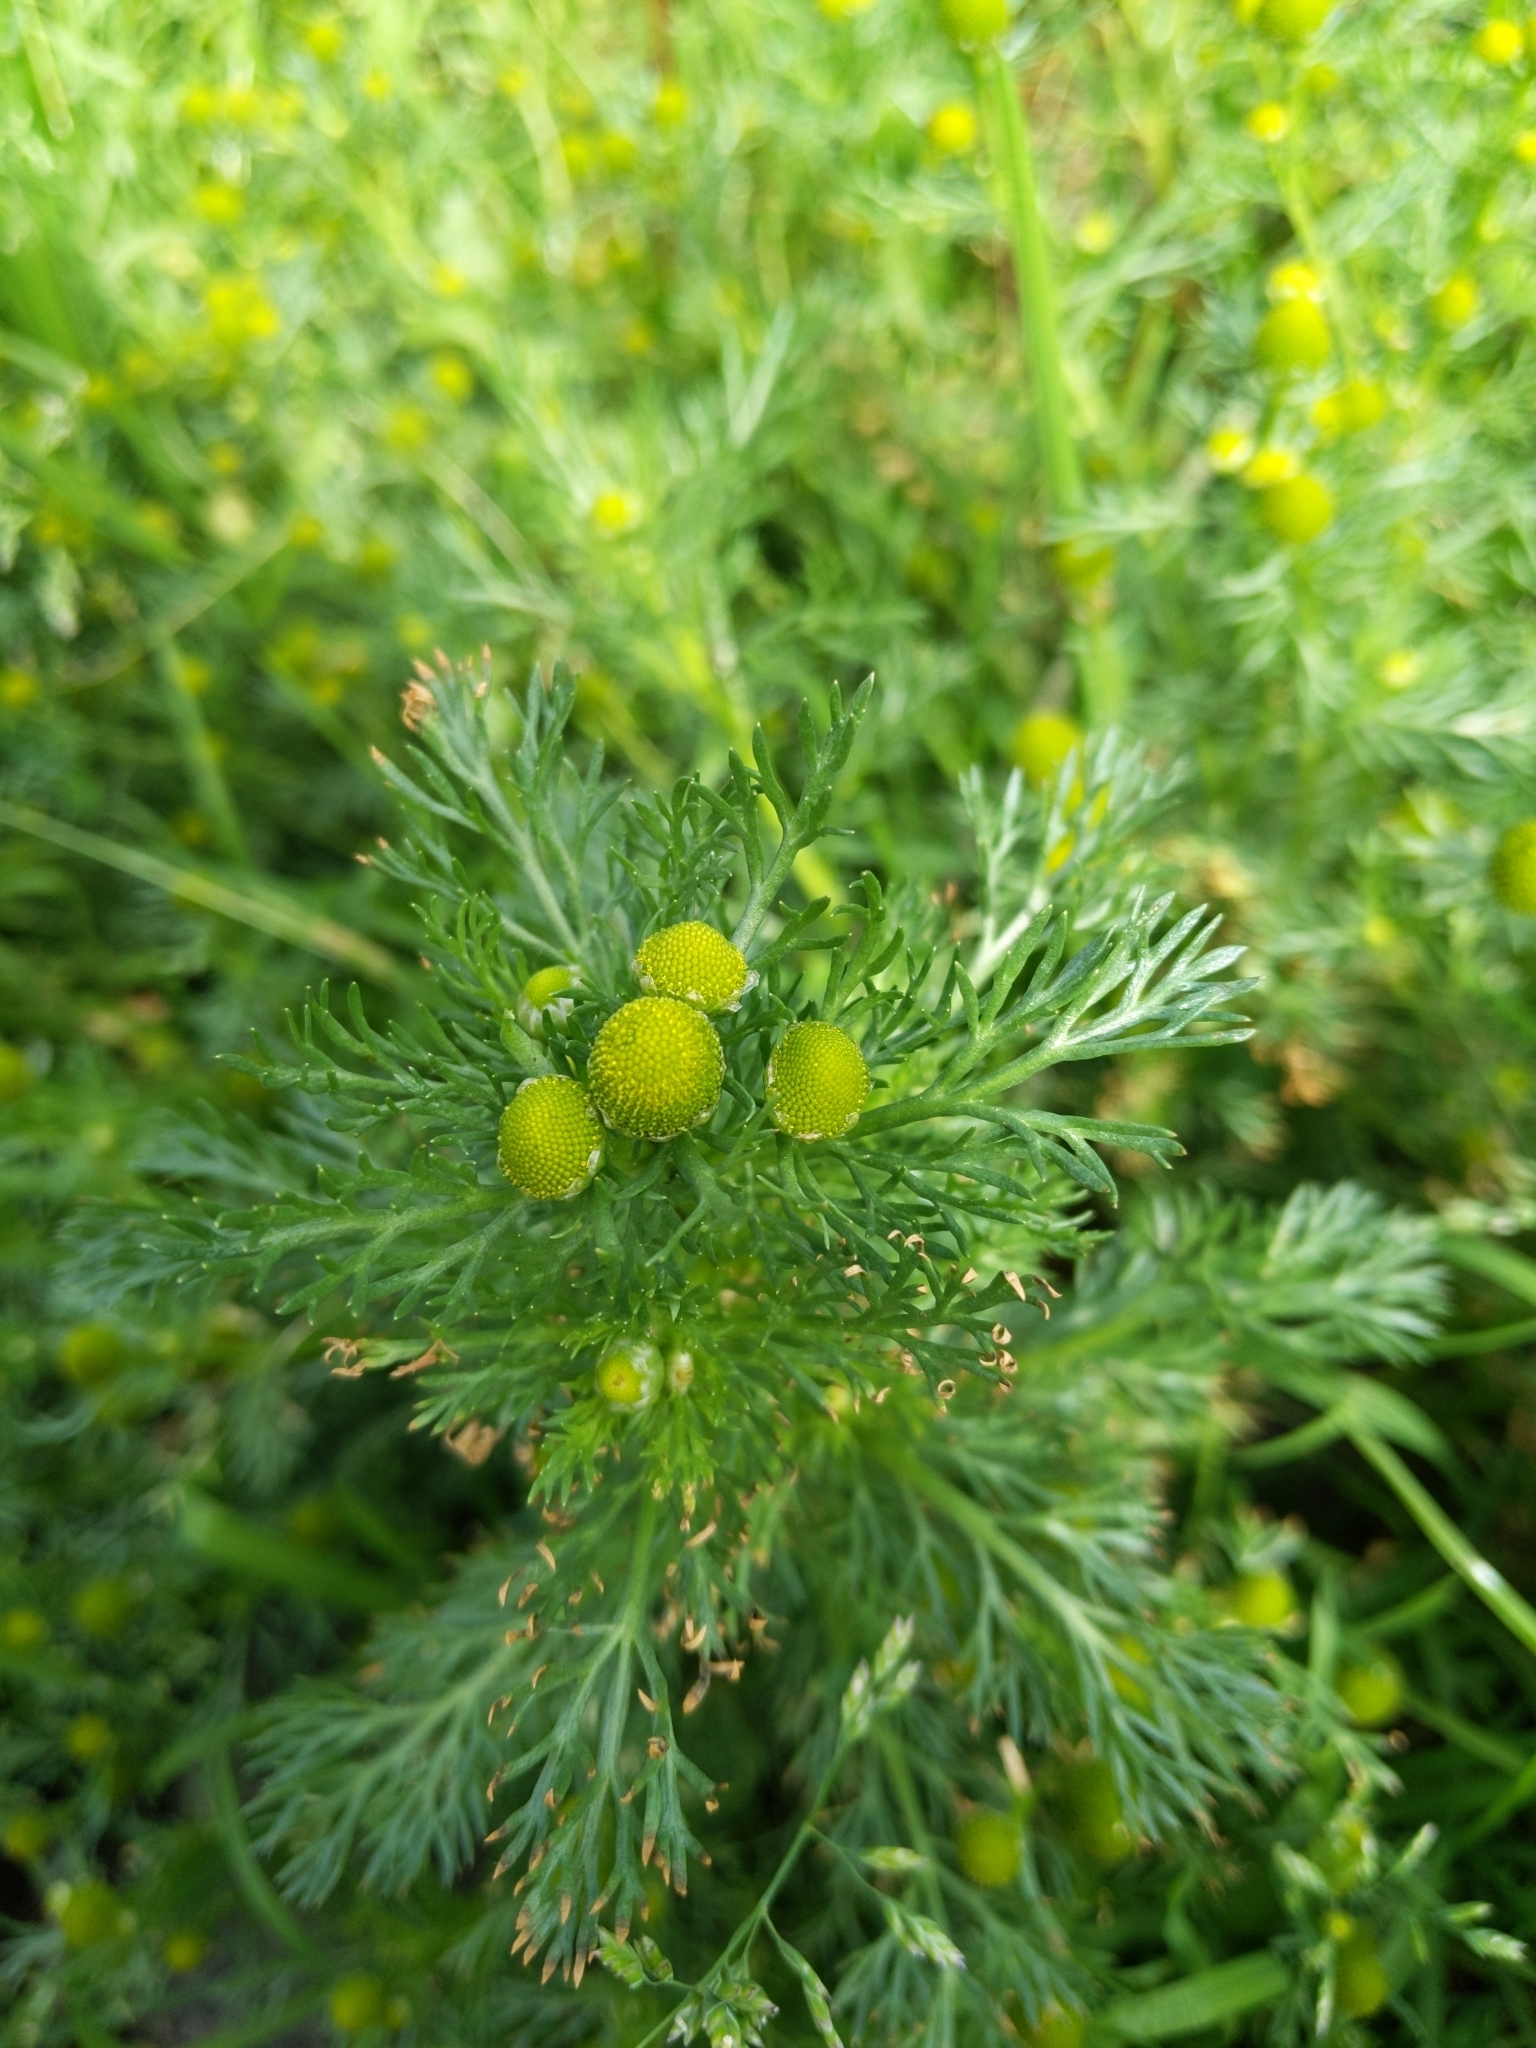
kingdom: Plantae
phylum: Tracheophyta
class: Magnoliopsida
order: Asterales
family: Asteraceae
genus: Matricaria
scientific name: Matricaria discoidea
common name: Disc mayweed
